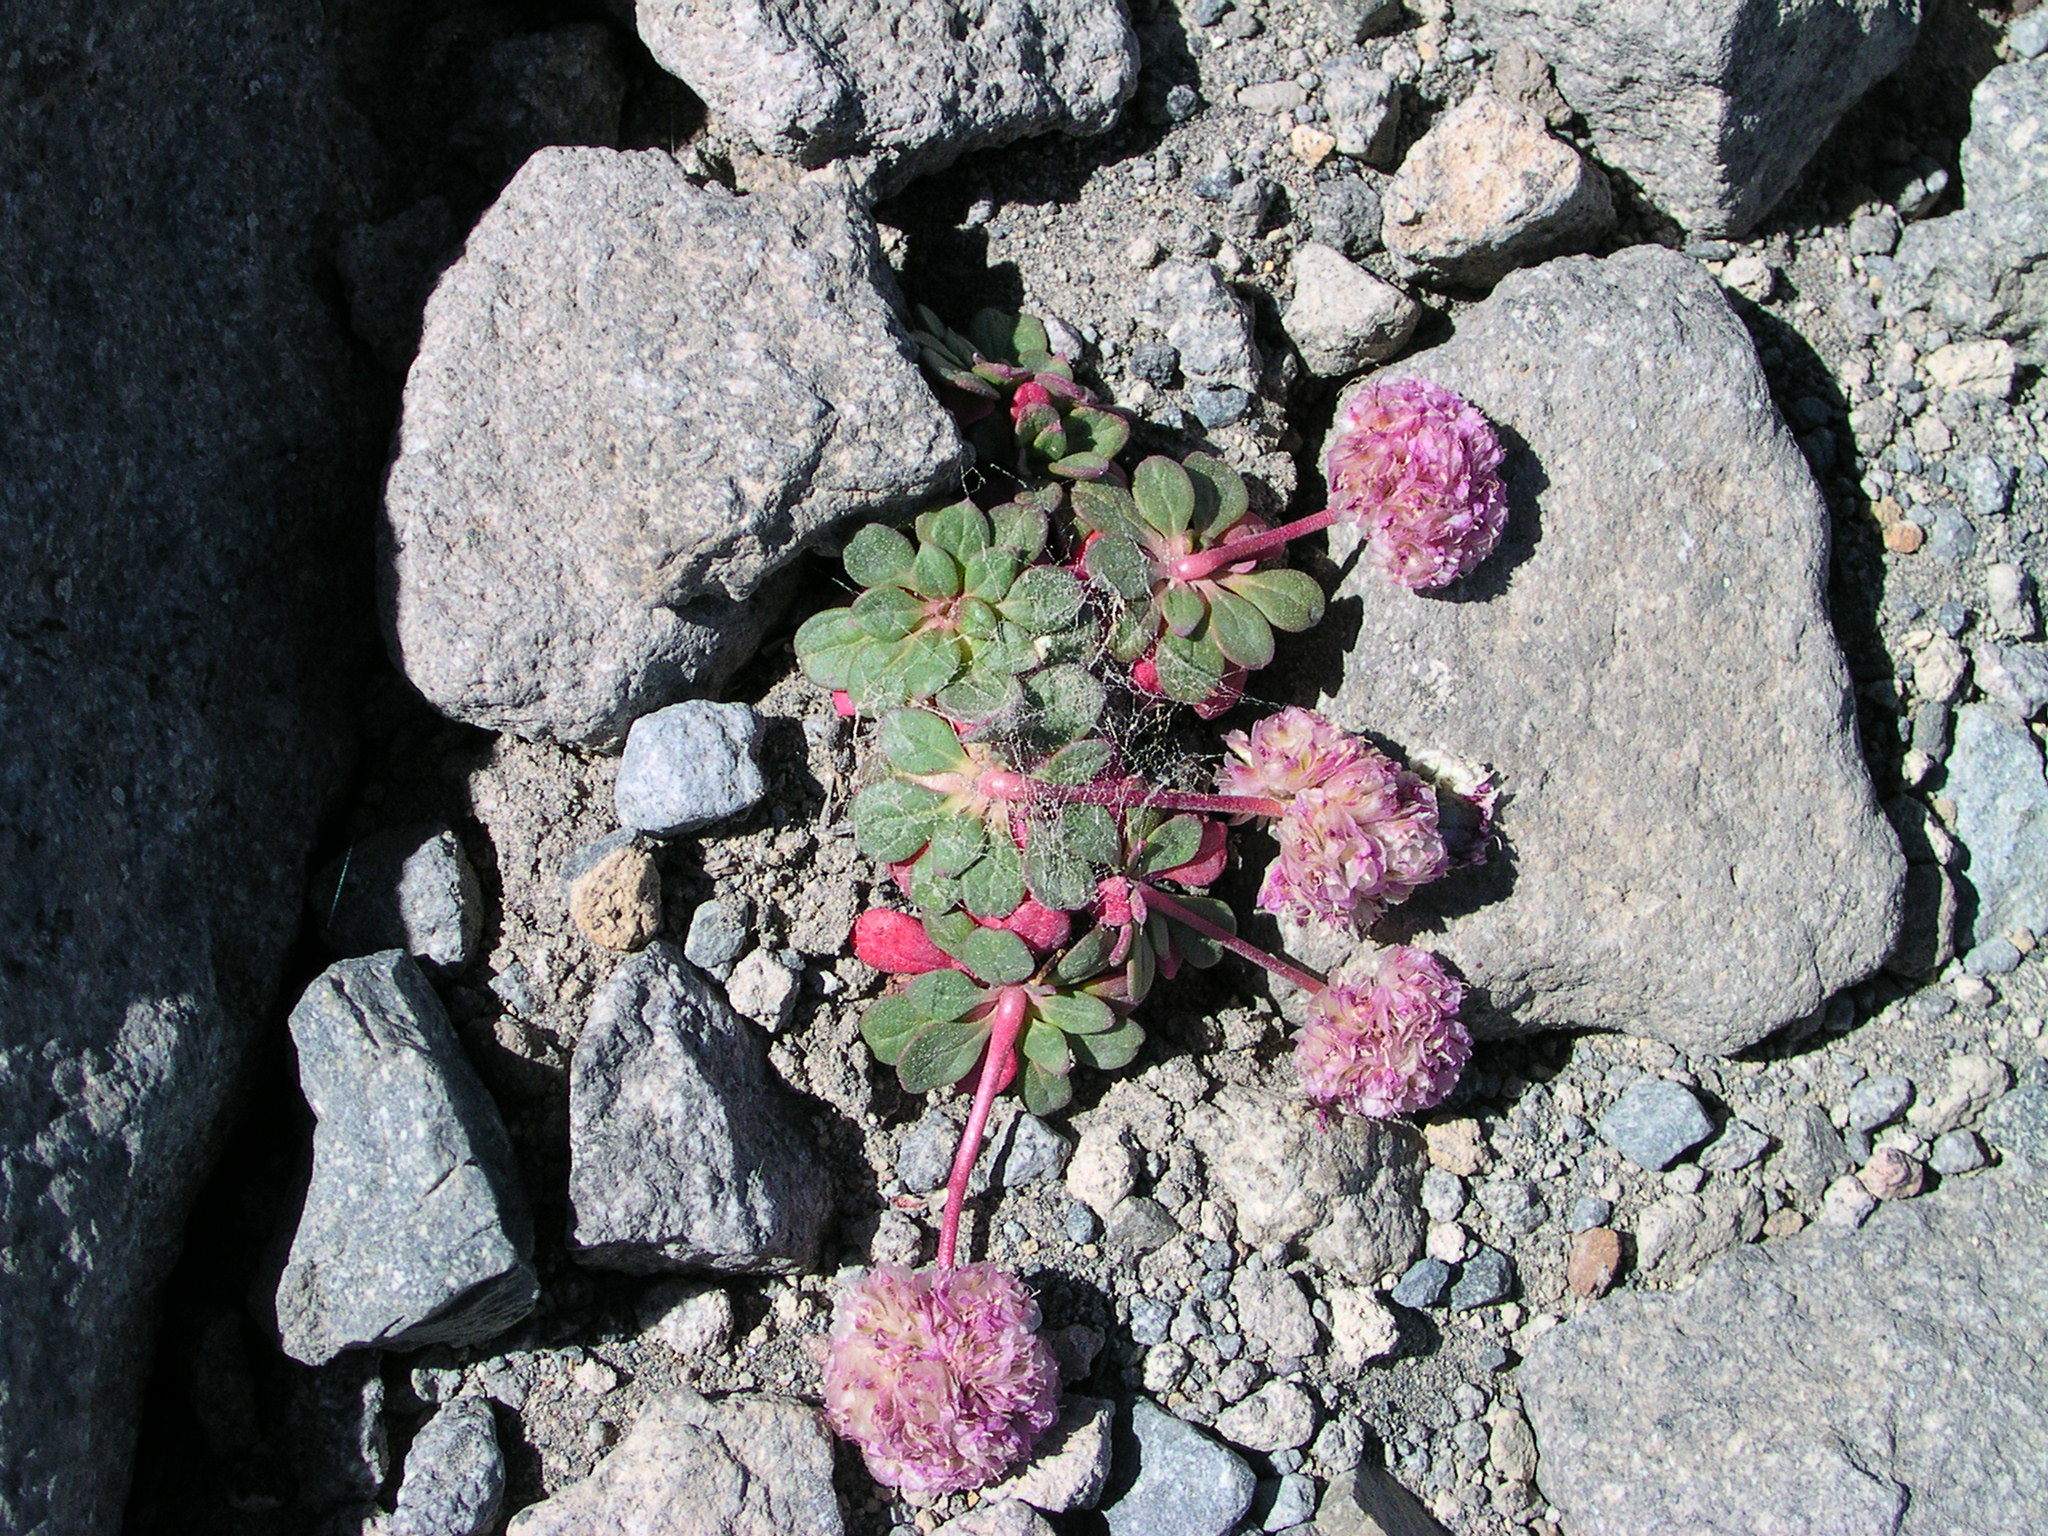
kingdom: Plantae
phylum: Tracheophyta
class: Magnoliopsida
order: Caryophyllales
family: Montiaceae
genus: Calyptridium
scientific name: Calyptridium umbellatum
